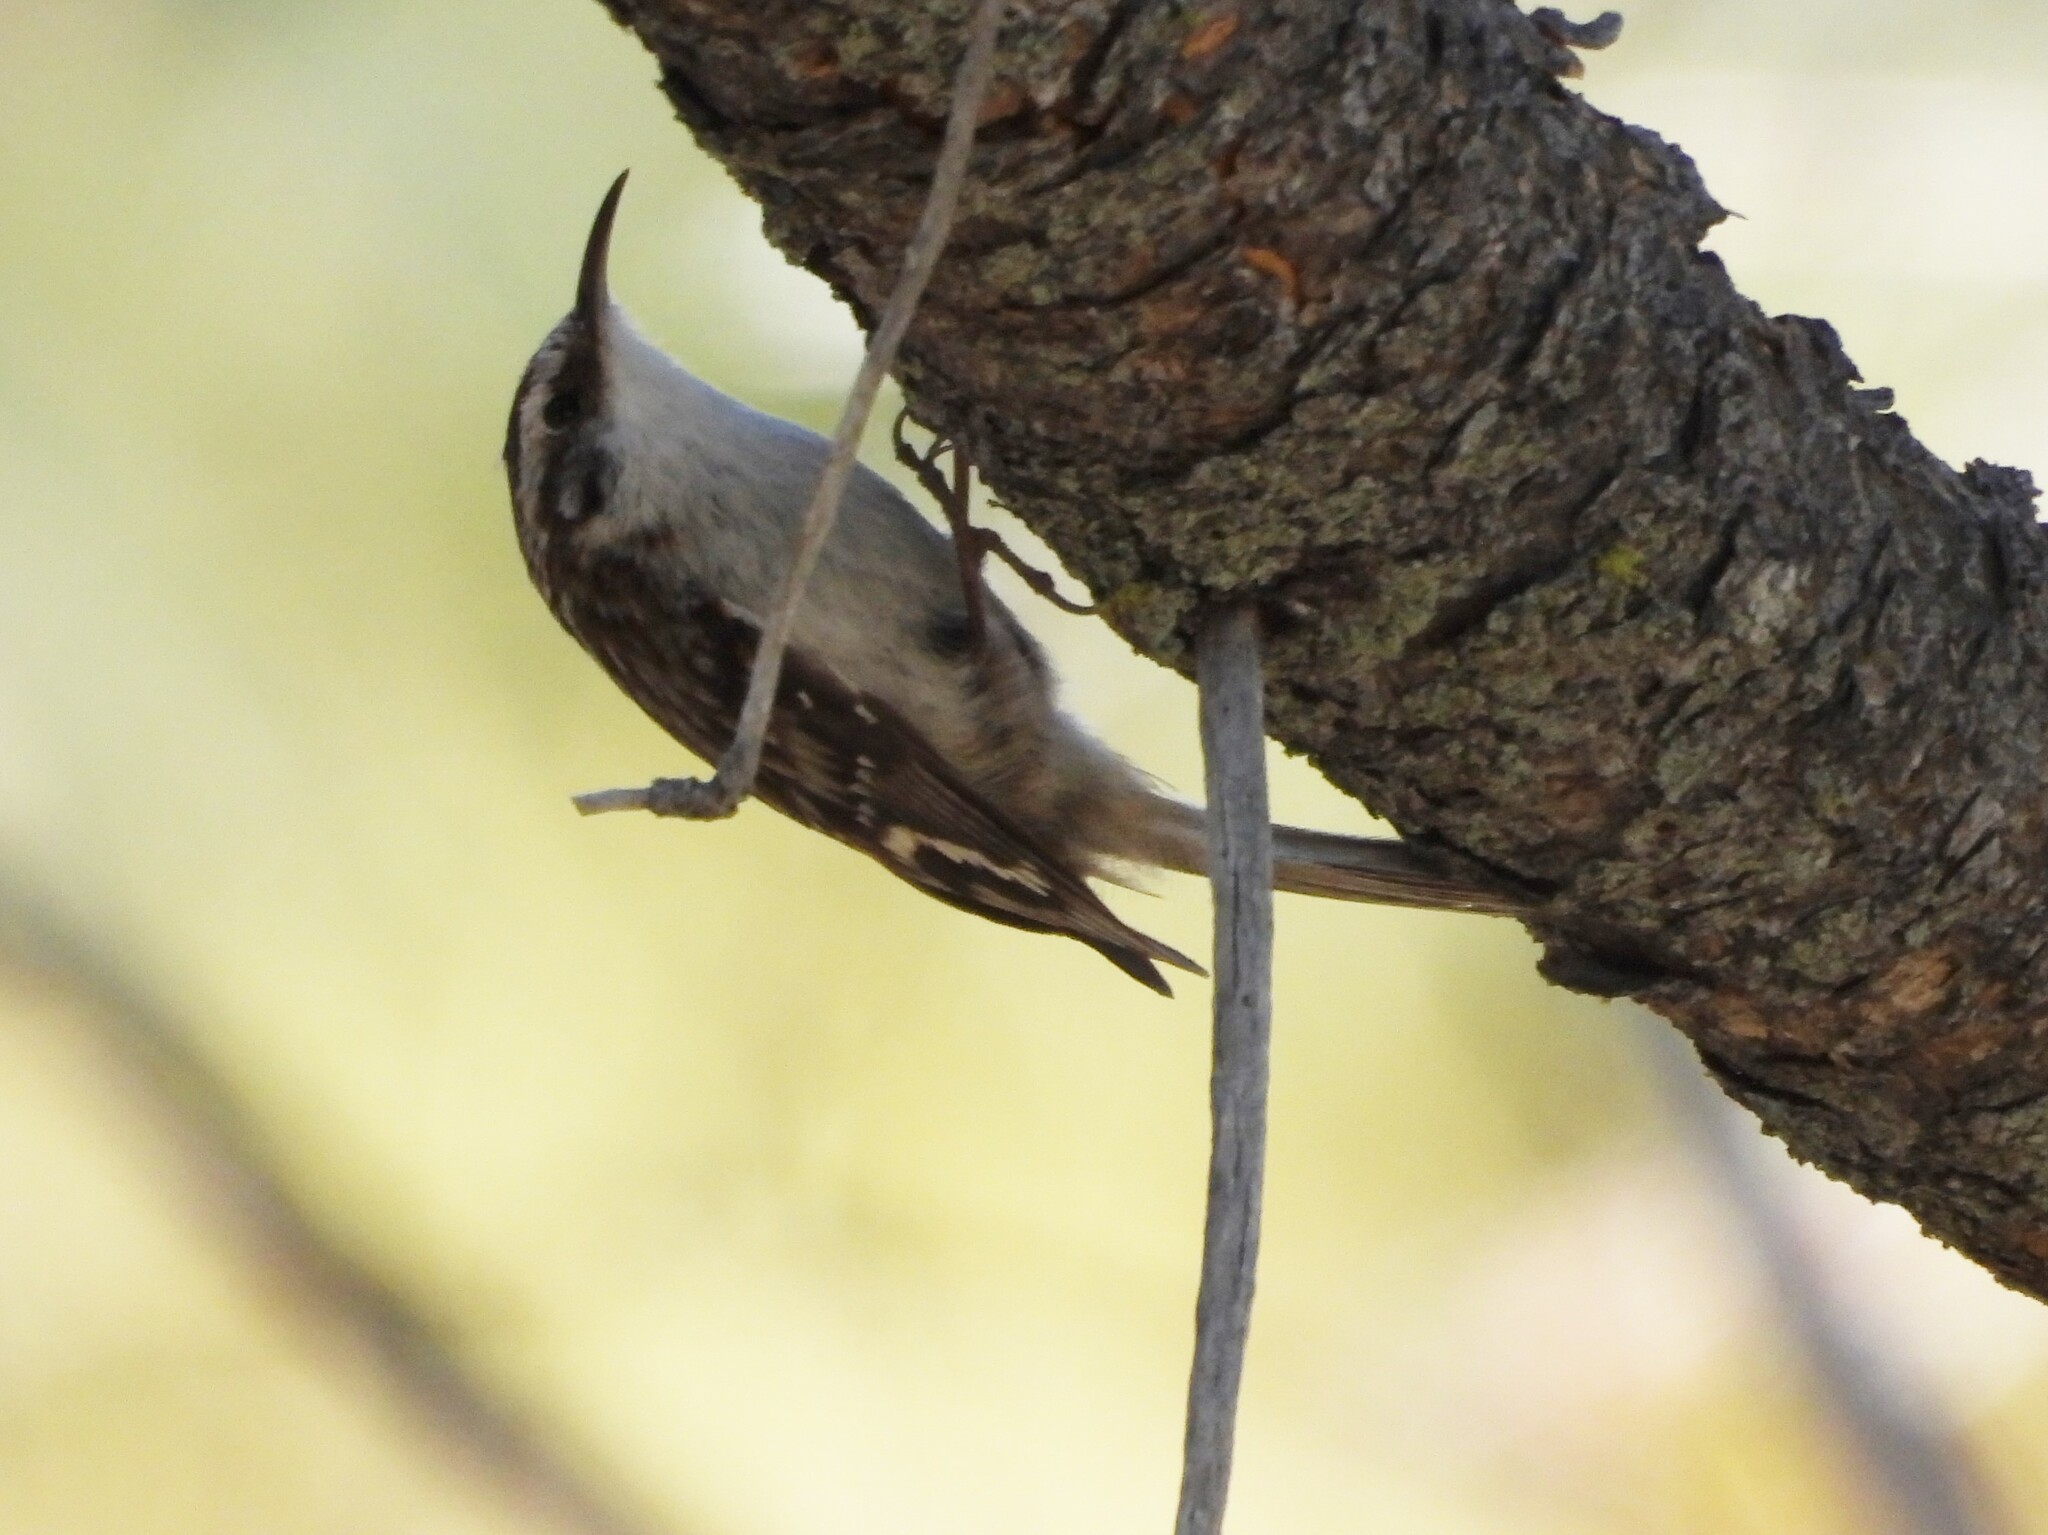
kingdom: Animalia
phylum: Chordata
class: Aves
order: Passeriformes
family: Certhiidae
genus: Certhia
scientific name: Certhia americana
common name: Brown creeper
